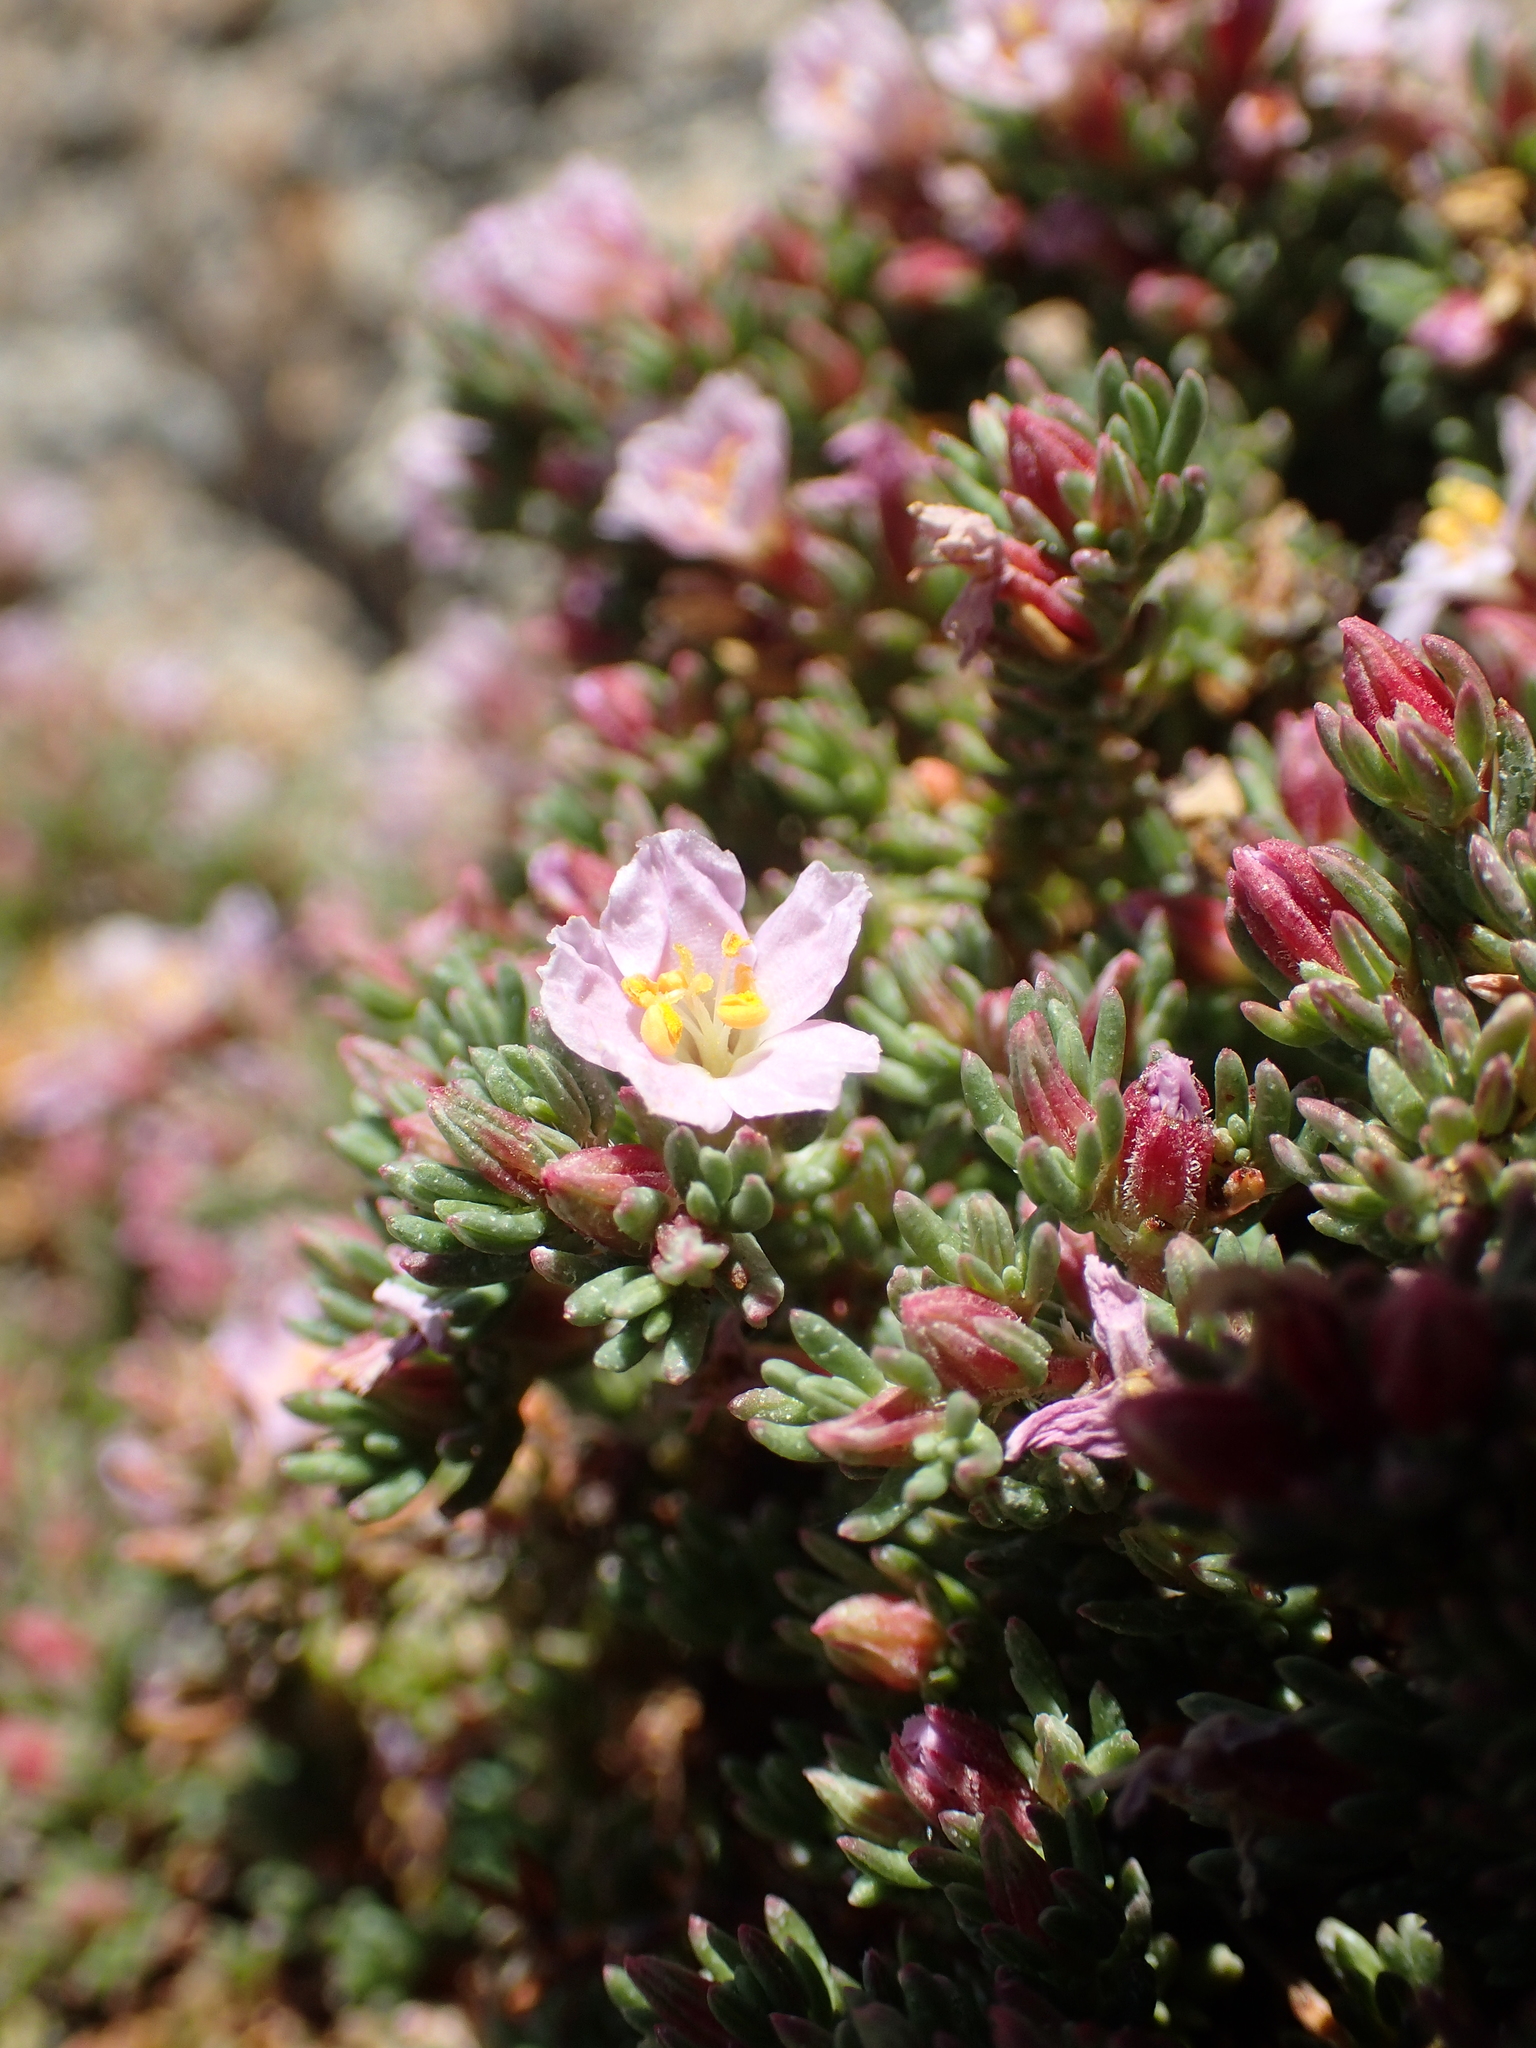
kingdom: Plantae
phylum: Tracheophyta
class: Magnoliopsida
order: Caryophyllales
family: Frankeniaceae
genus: Frankenia
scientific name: Frankenia laevis
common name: Sea-heath
